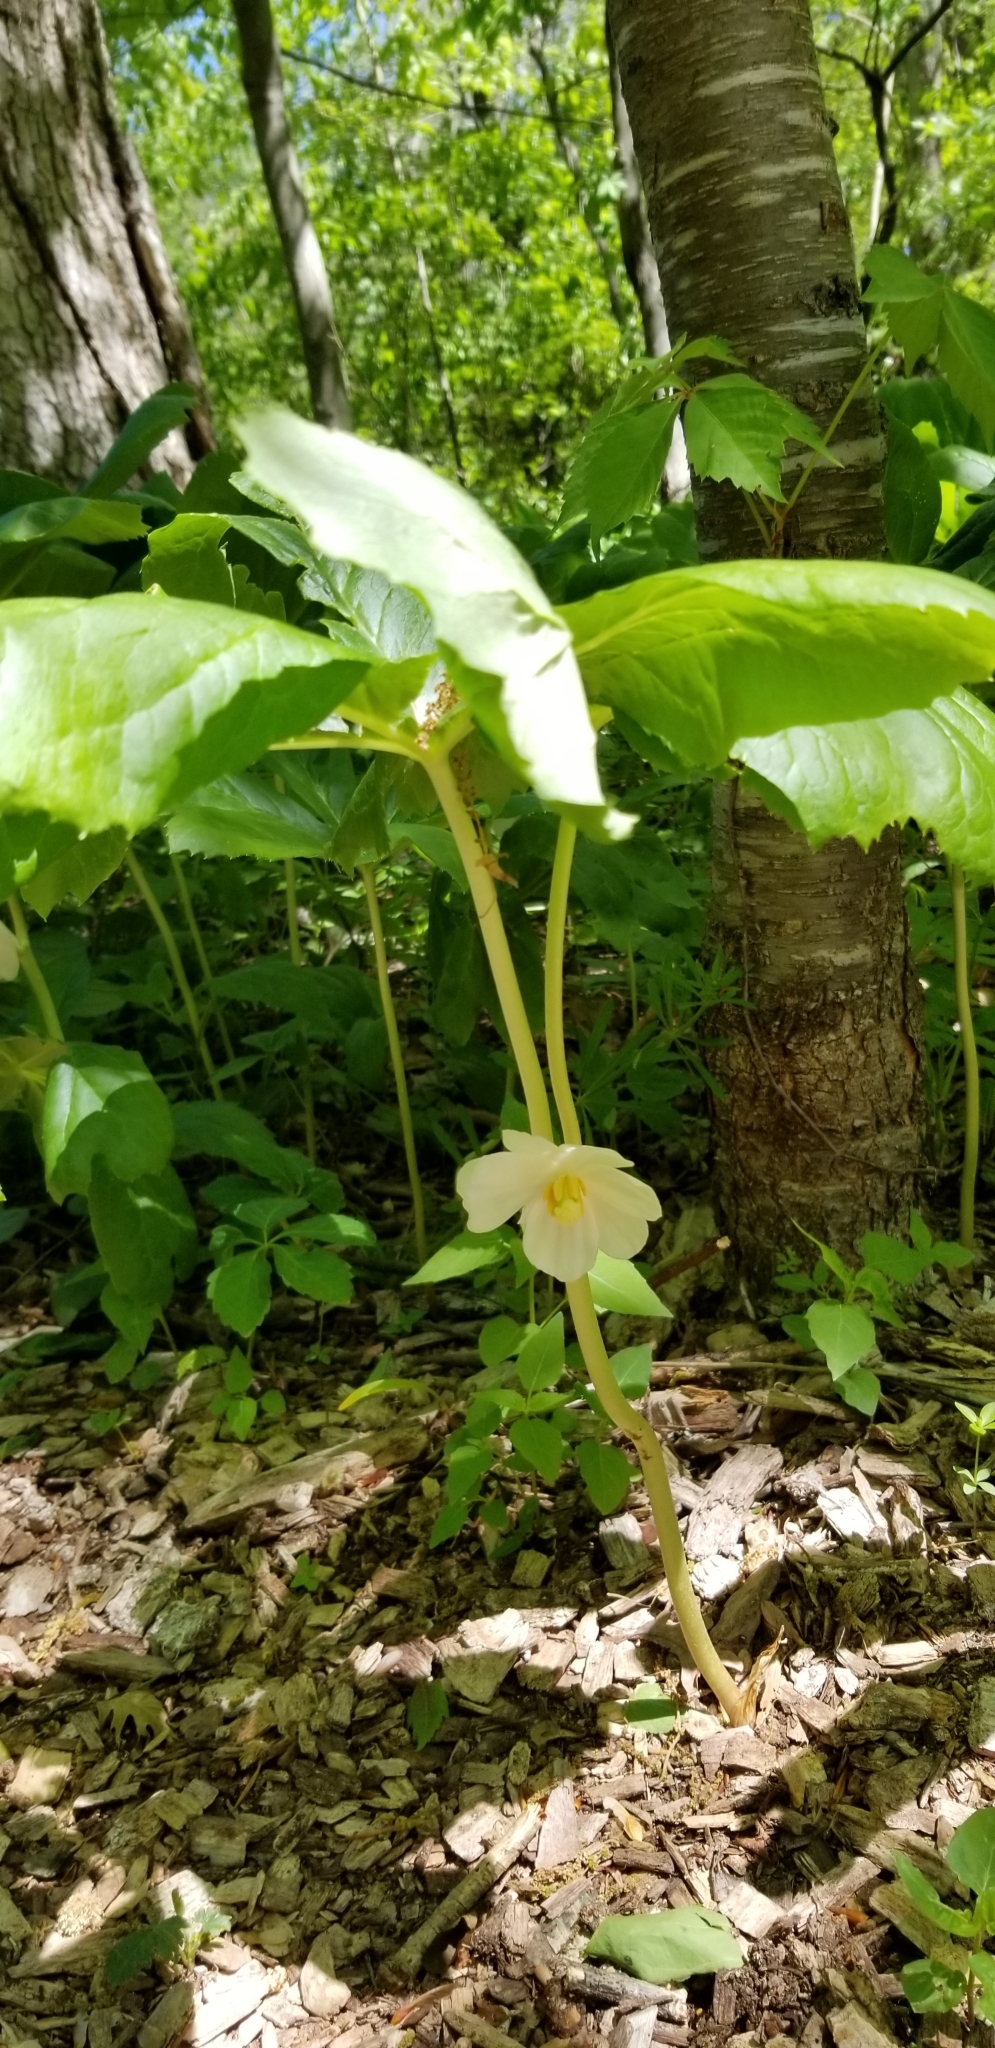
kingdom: Plantae
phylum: Tracheophyta
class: Magnoliopsida
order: Ranunculales
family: Berberidaceae
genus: Podophyllum
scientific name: Podophyllum peltatum
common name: Wild mandrake
